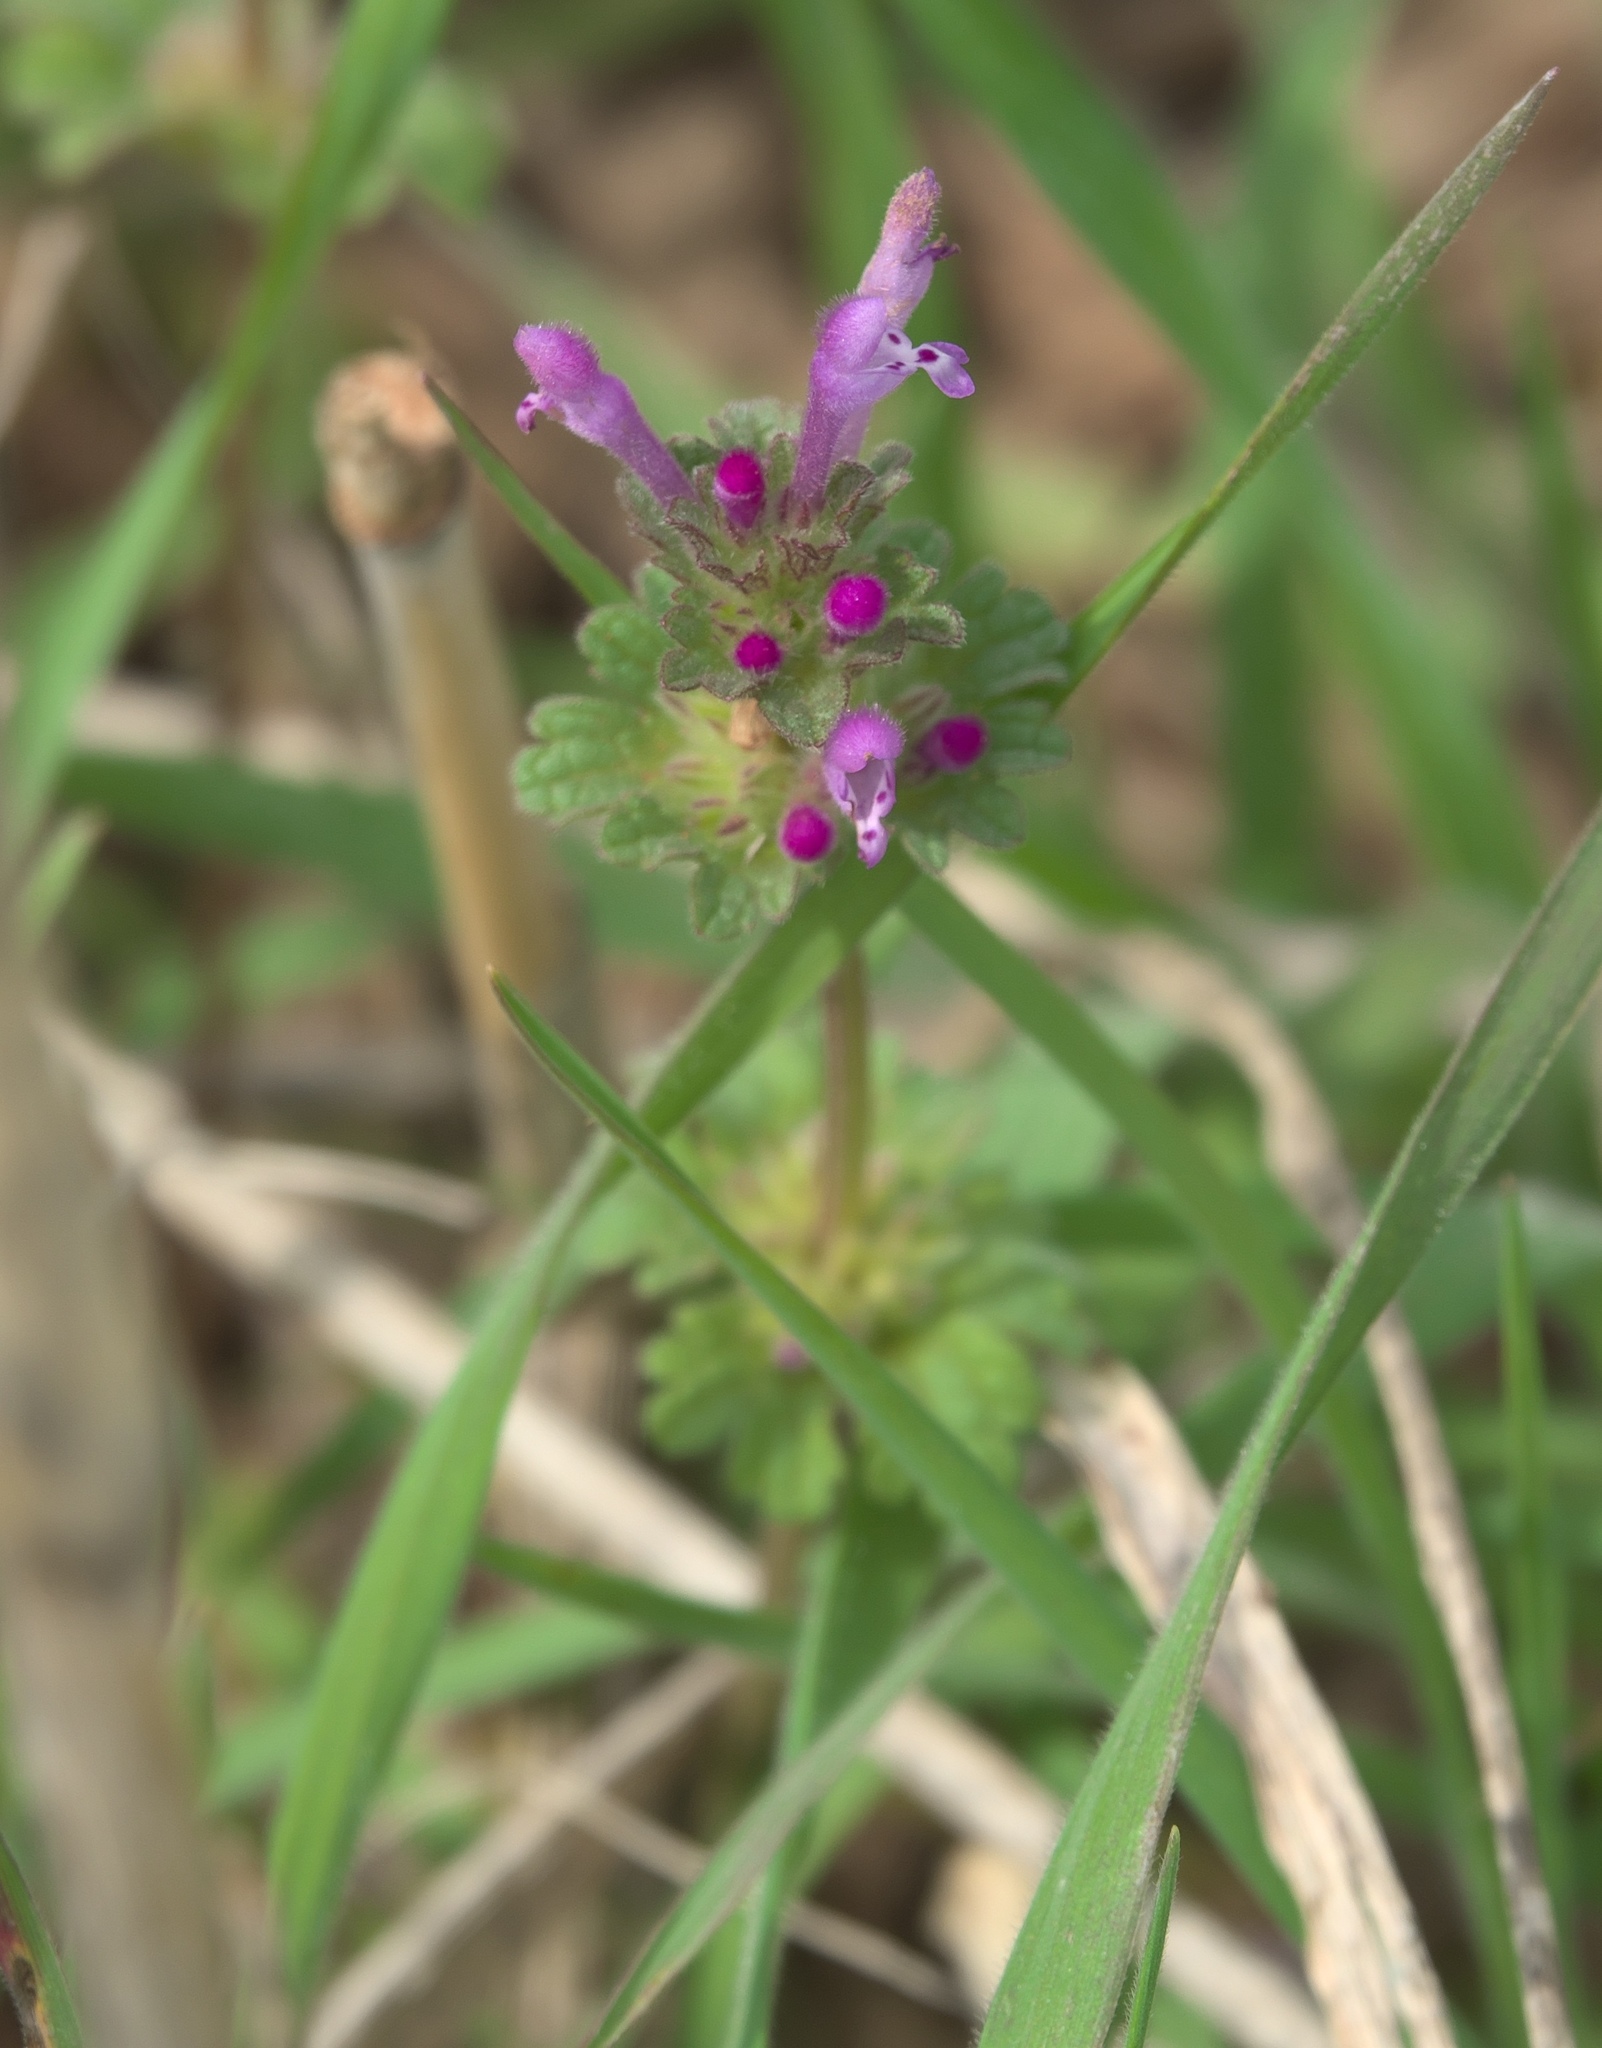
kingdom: Plantae
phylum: Tracheophyta
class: Magnoliopsida
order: Lamiales
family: Lamiaceae
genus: Lamium
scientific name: Lamium amplexicaule
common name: Henbit dead-nettle
